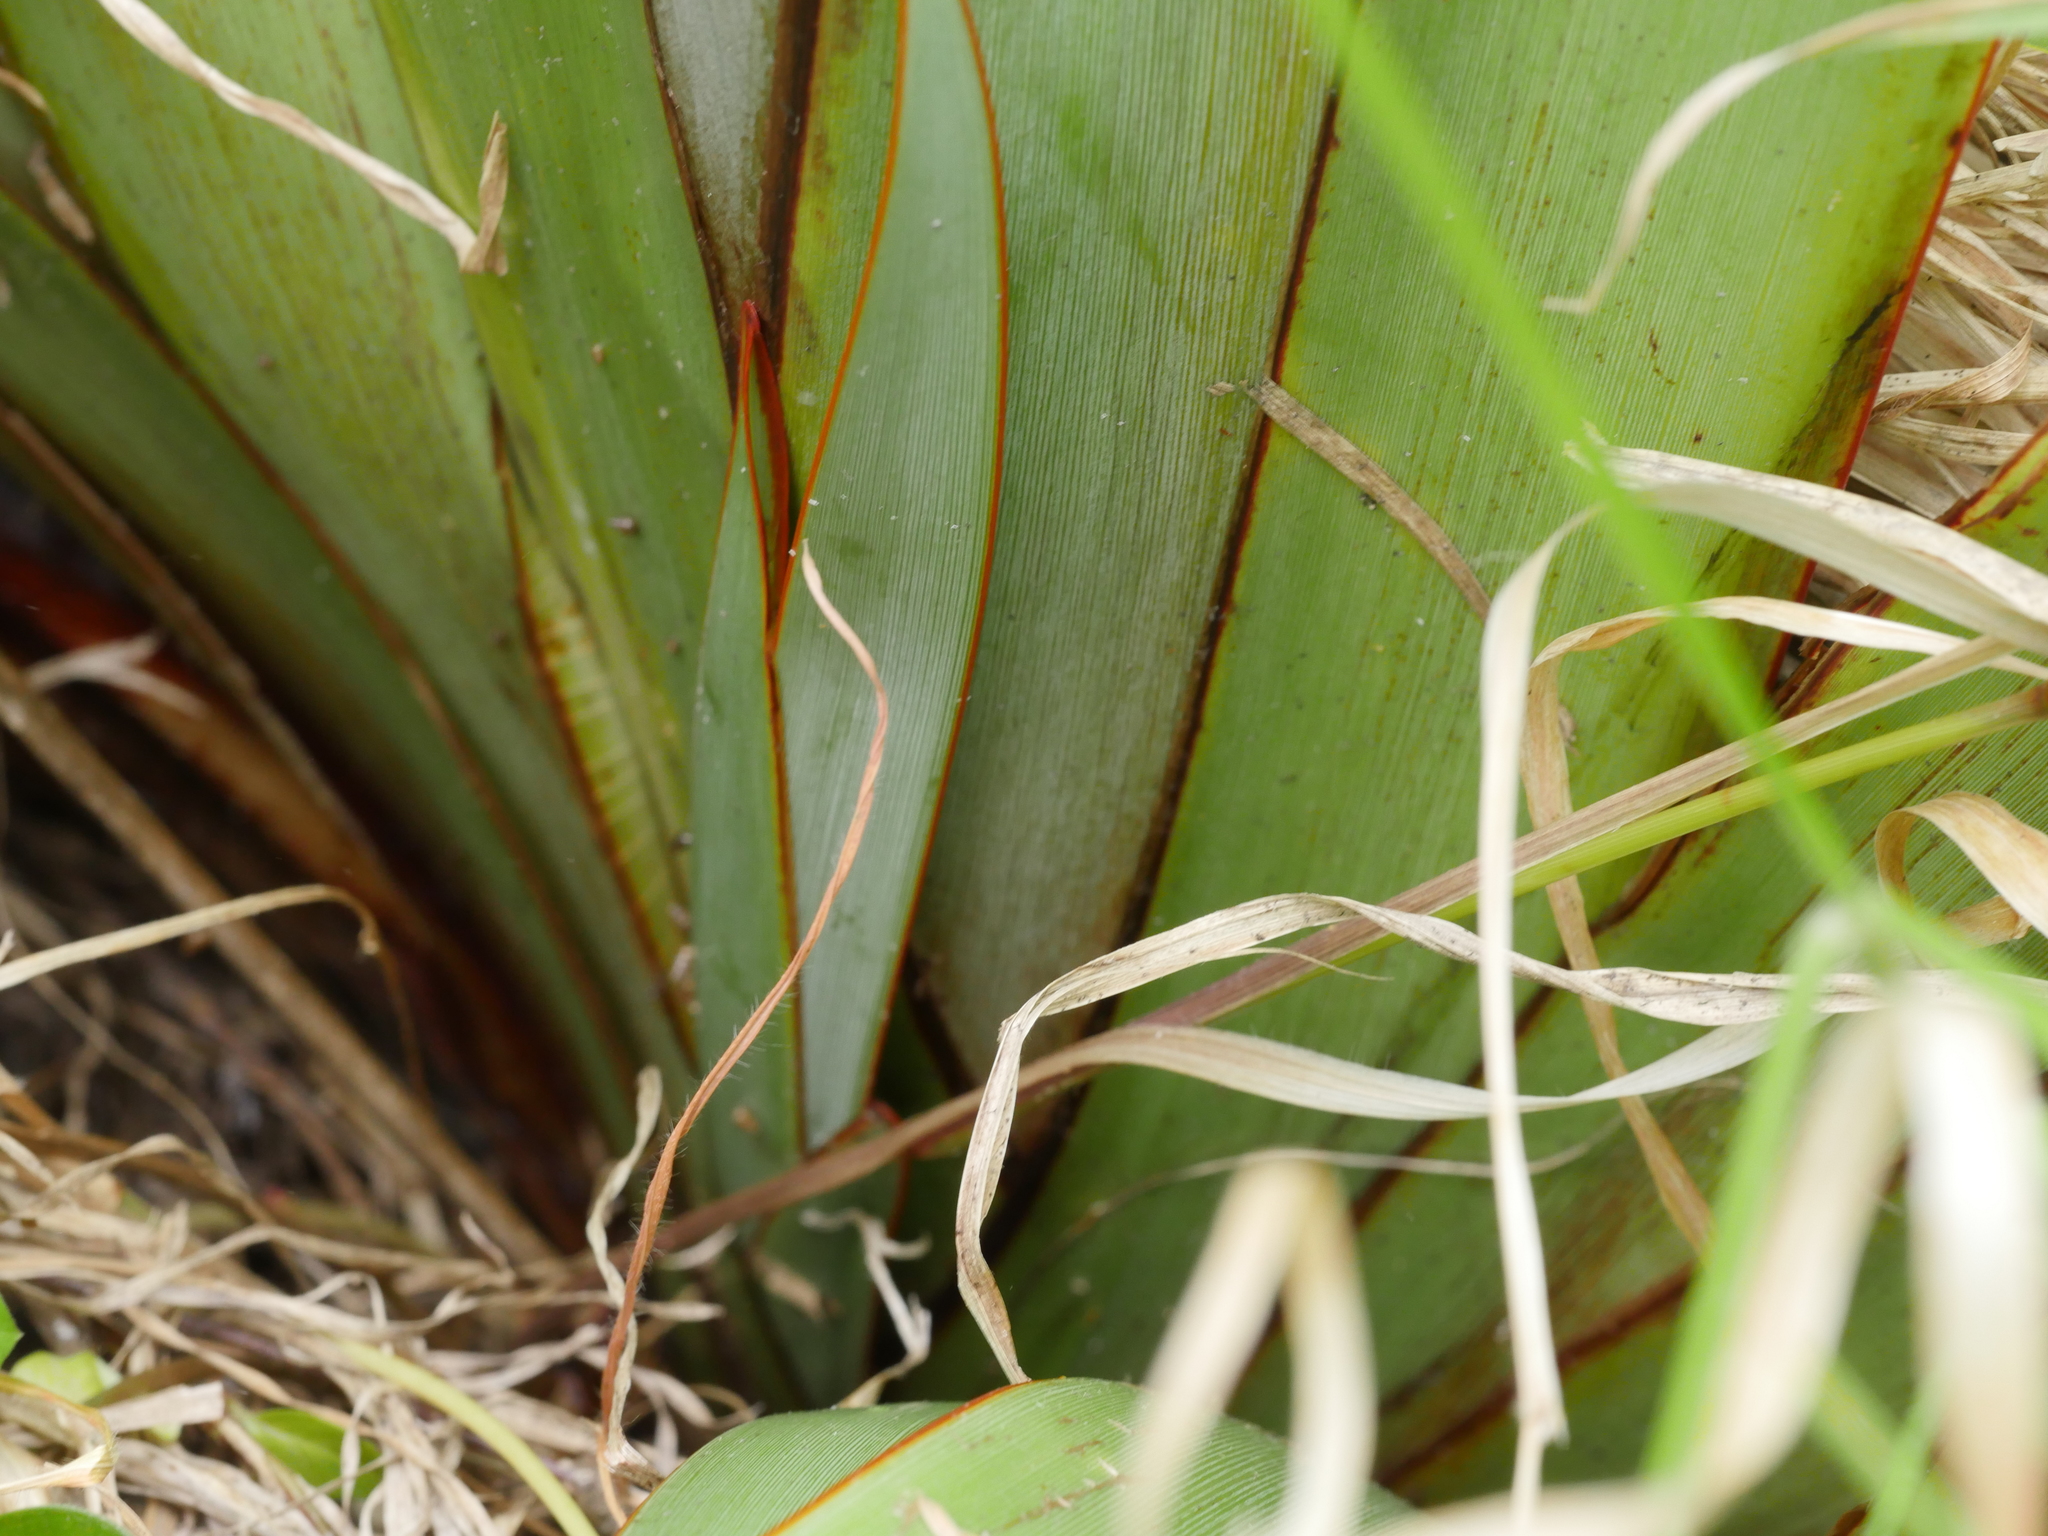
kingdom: Plantae
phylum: Tracheophyta
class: Liliopsida
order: Asparagales
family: Asphodelaceae
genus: Phormium
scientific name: Phormium colensoi
